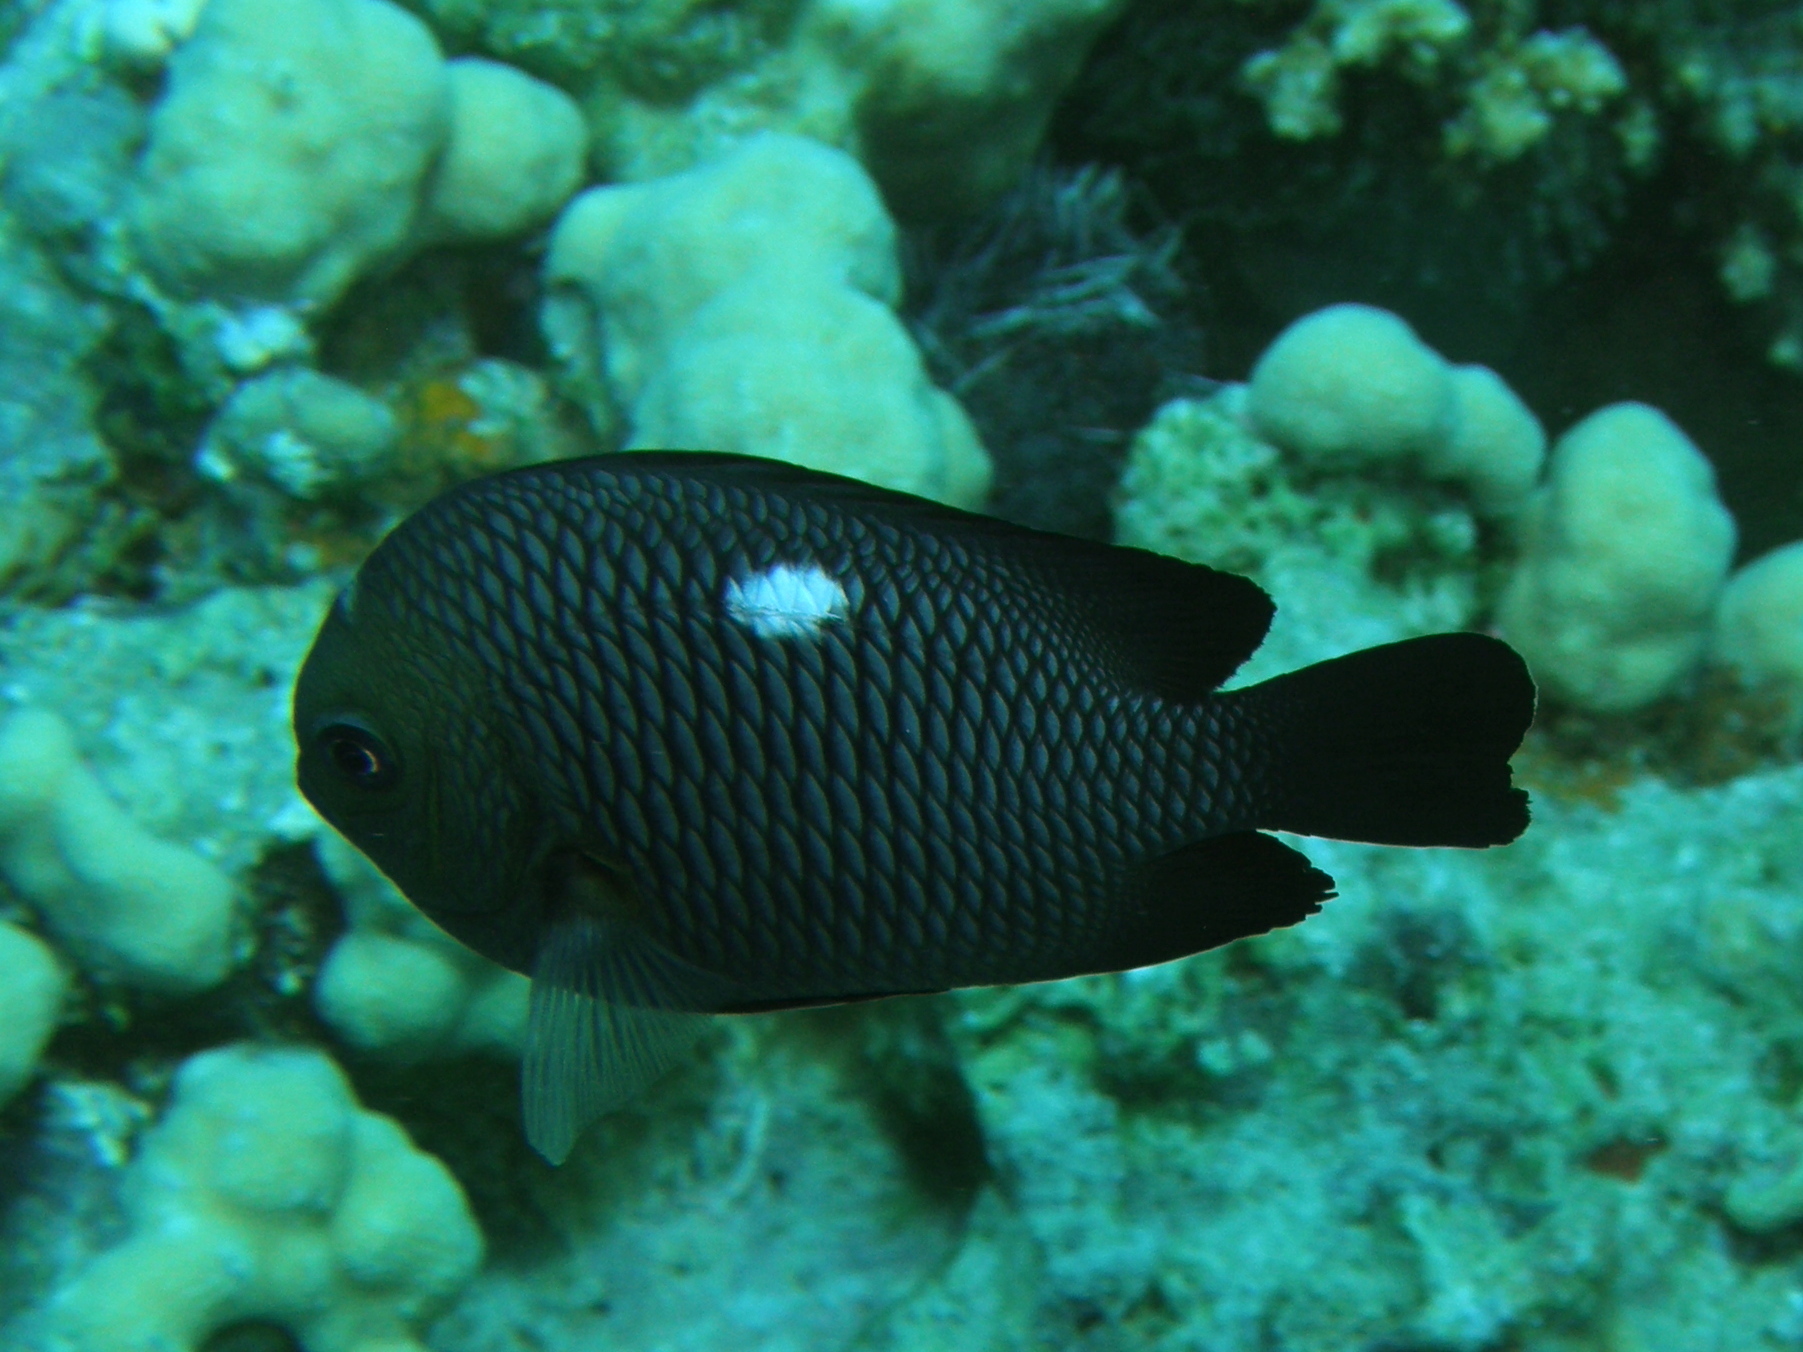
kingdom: Animalia
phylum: Chordata
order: Perciformes
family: Pomacentridae
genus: Dascyllus
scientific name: Dascyllus trimaculatus
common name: Threespot dascyllus
